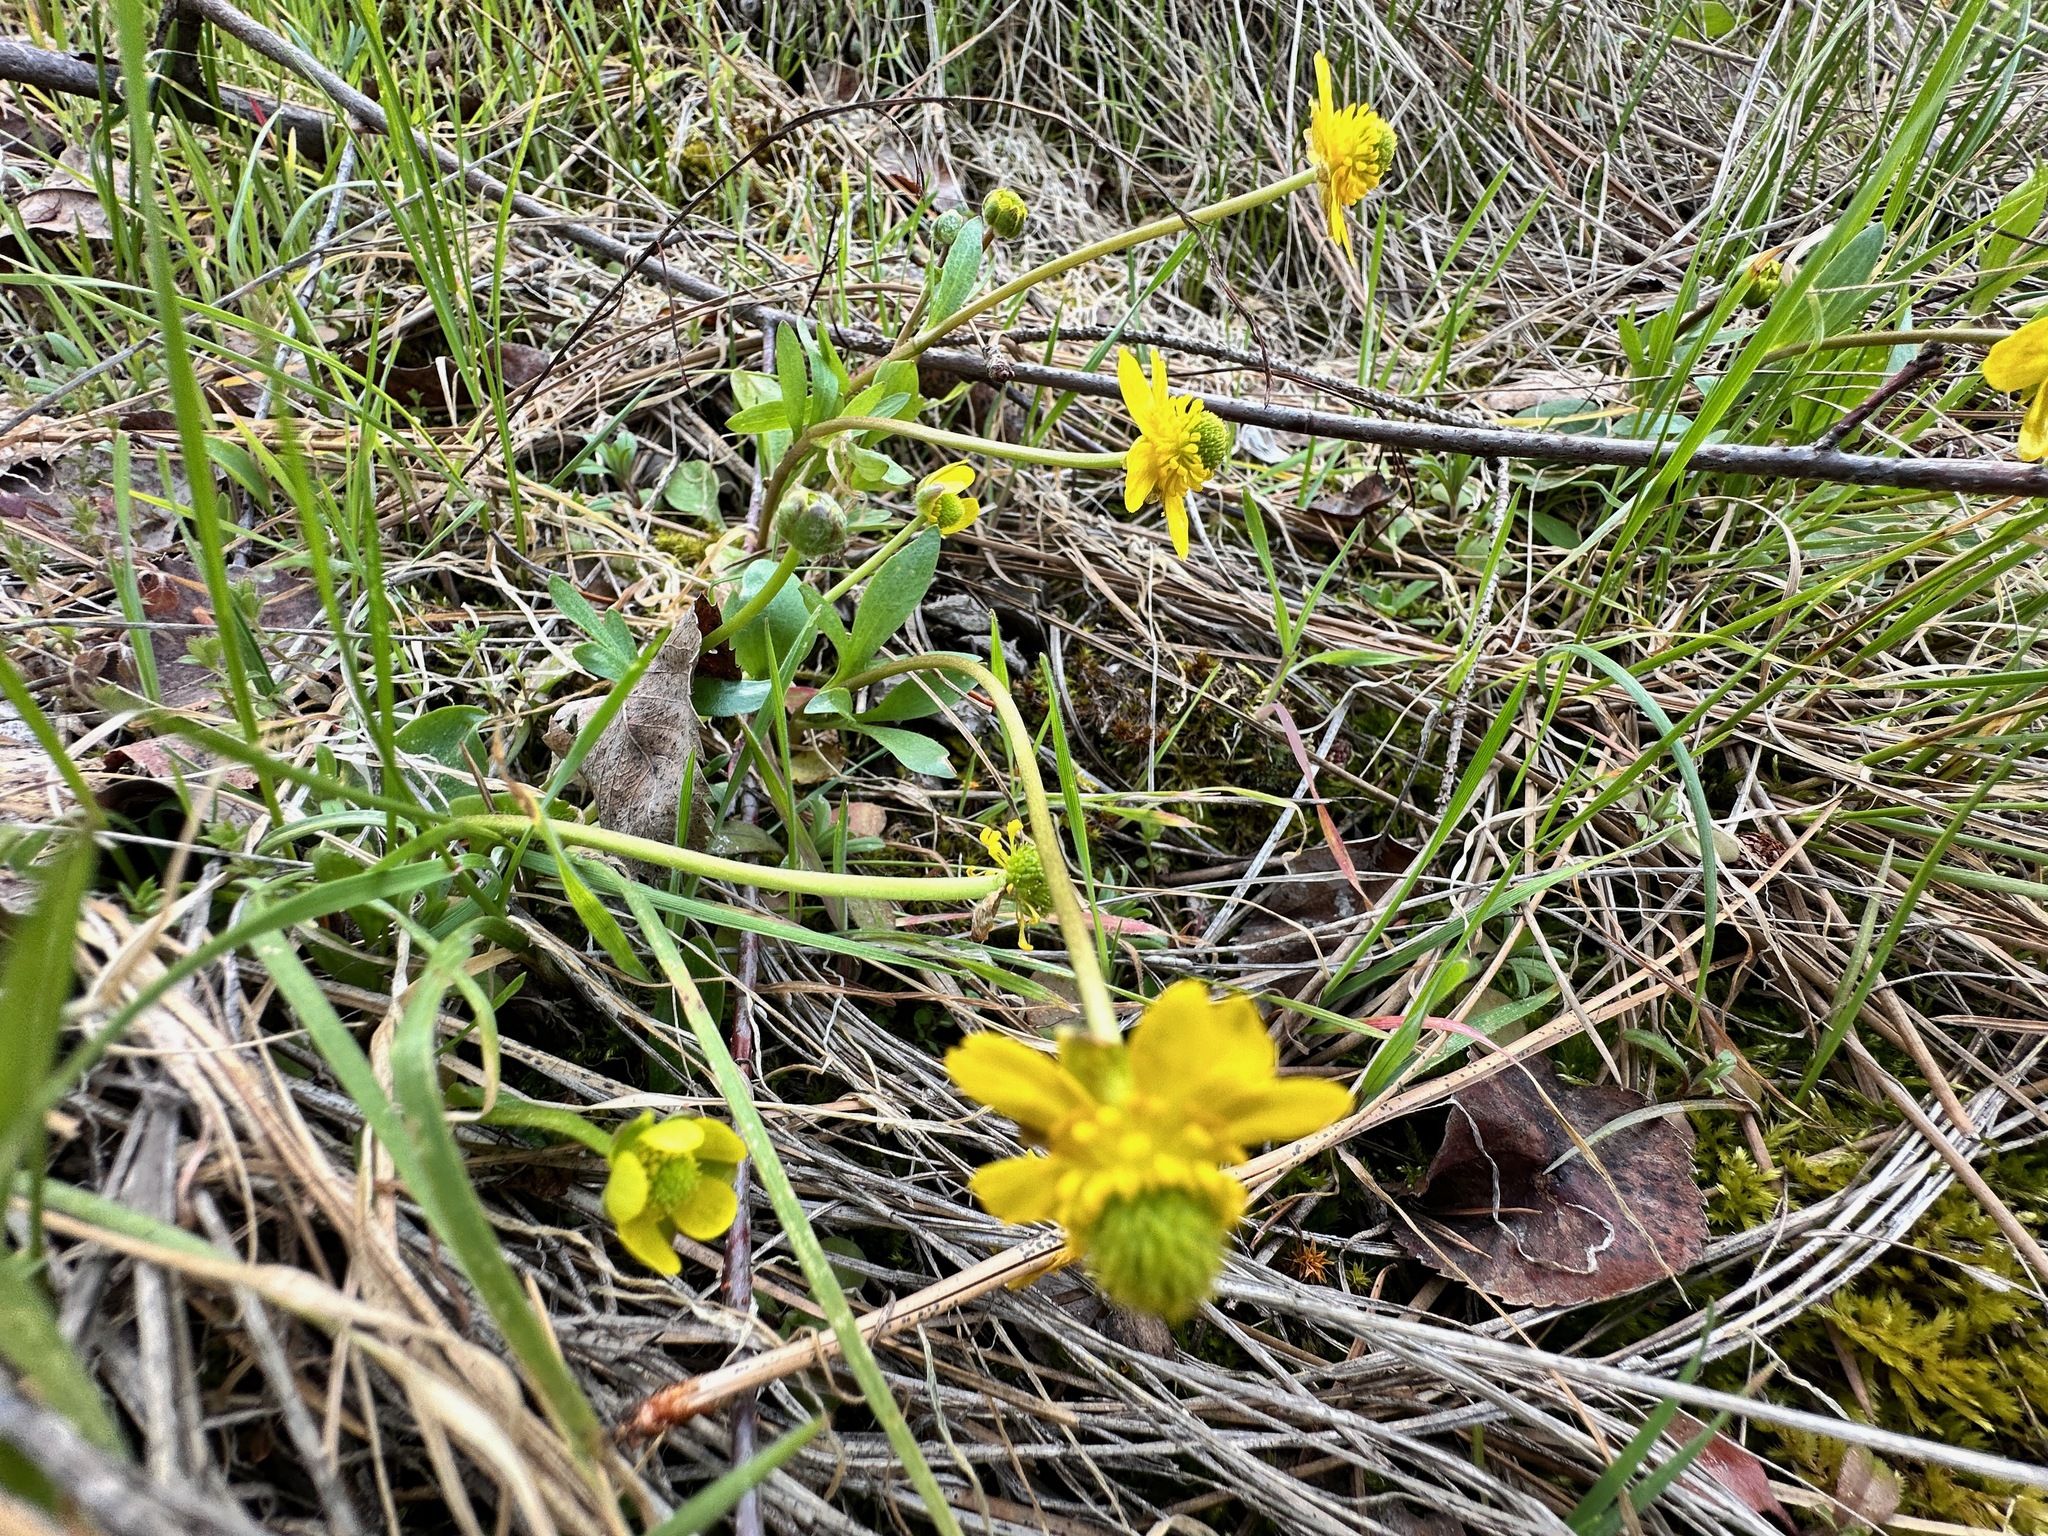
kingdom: Plantae
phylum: Tracheophyta
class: Magnoliopsida
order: Ranunculales
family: Ranunculaceae
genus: Ranunculus
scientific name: Ranunculus glaberrimus
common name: Sagebrush buttercup
